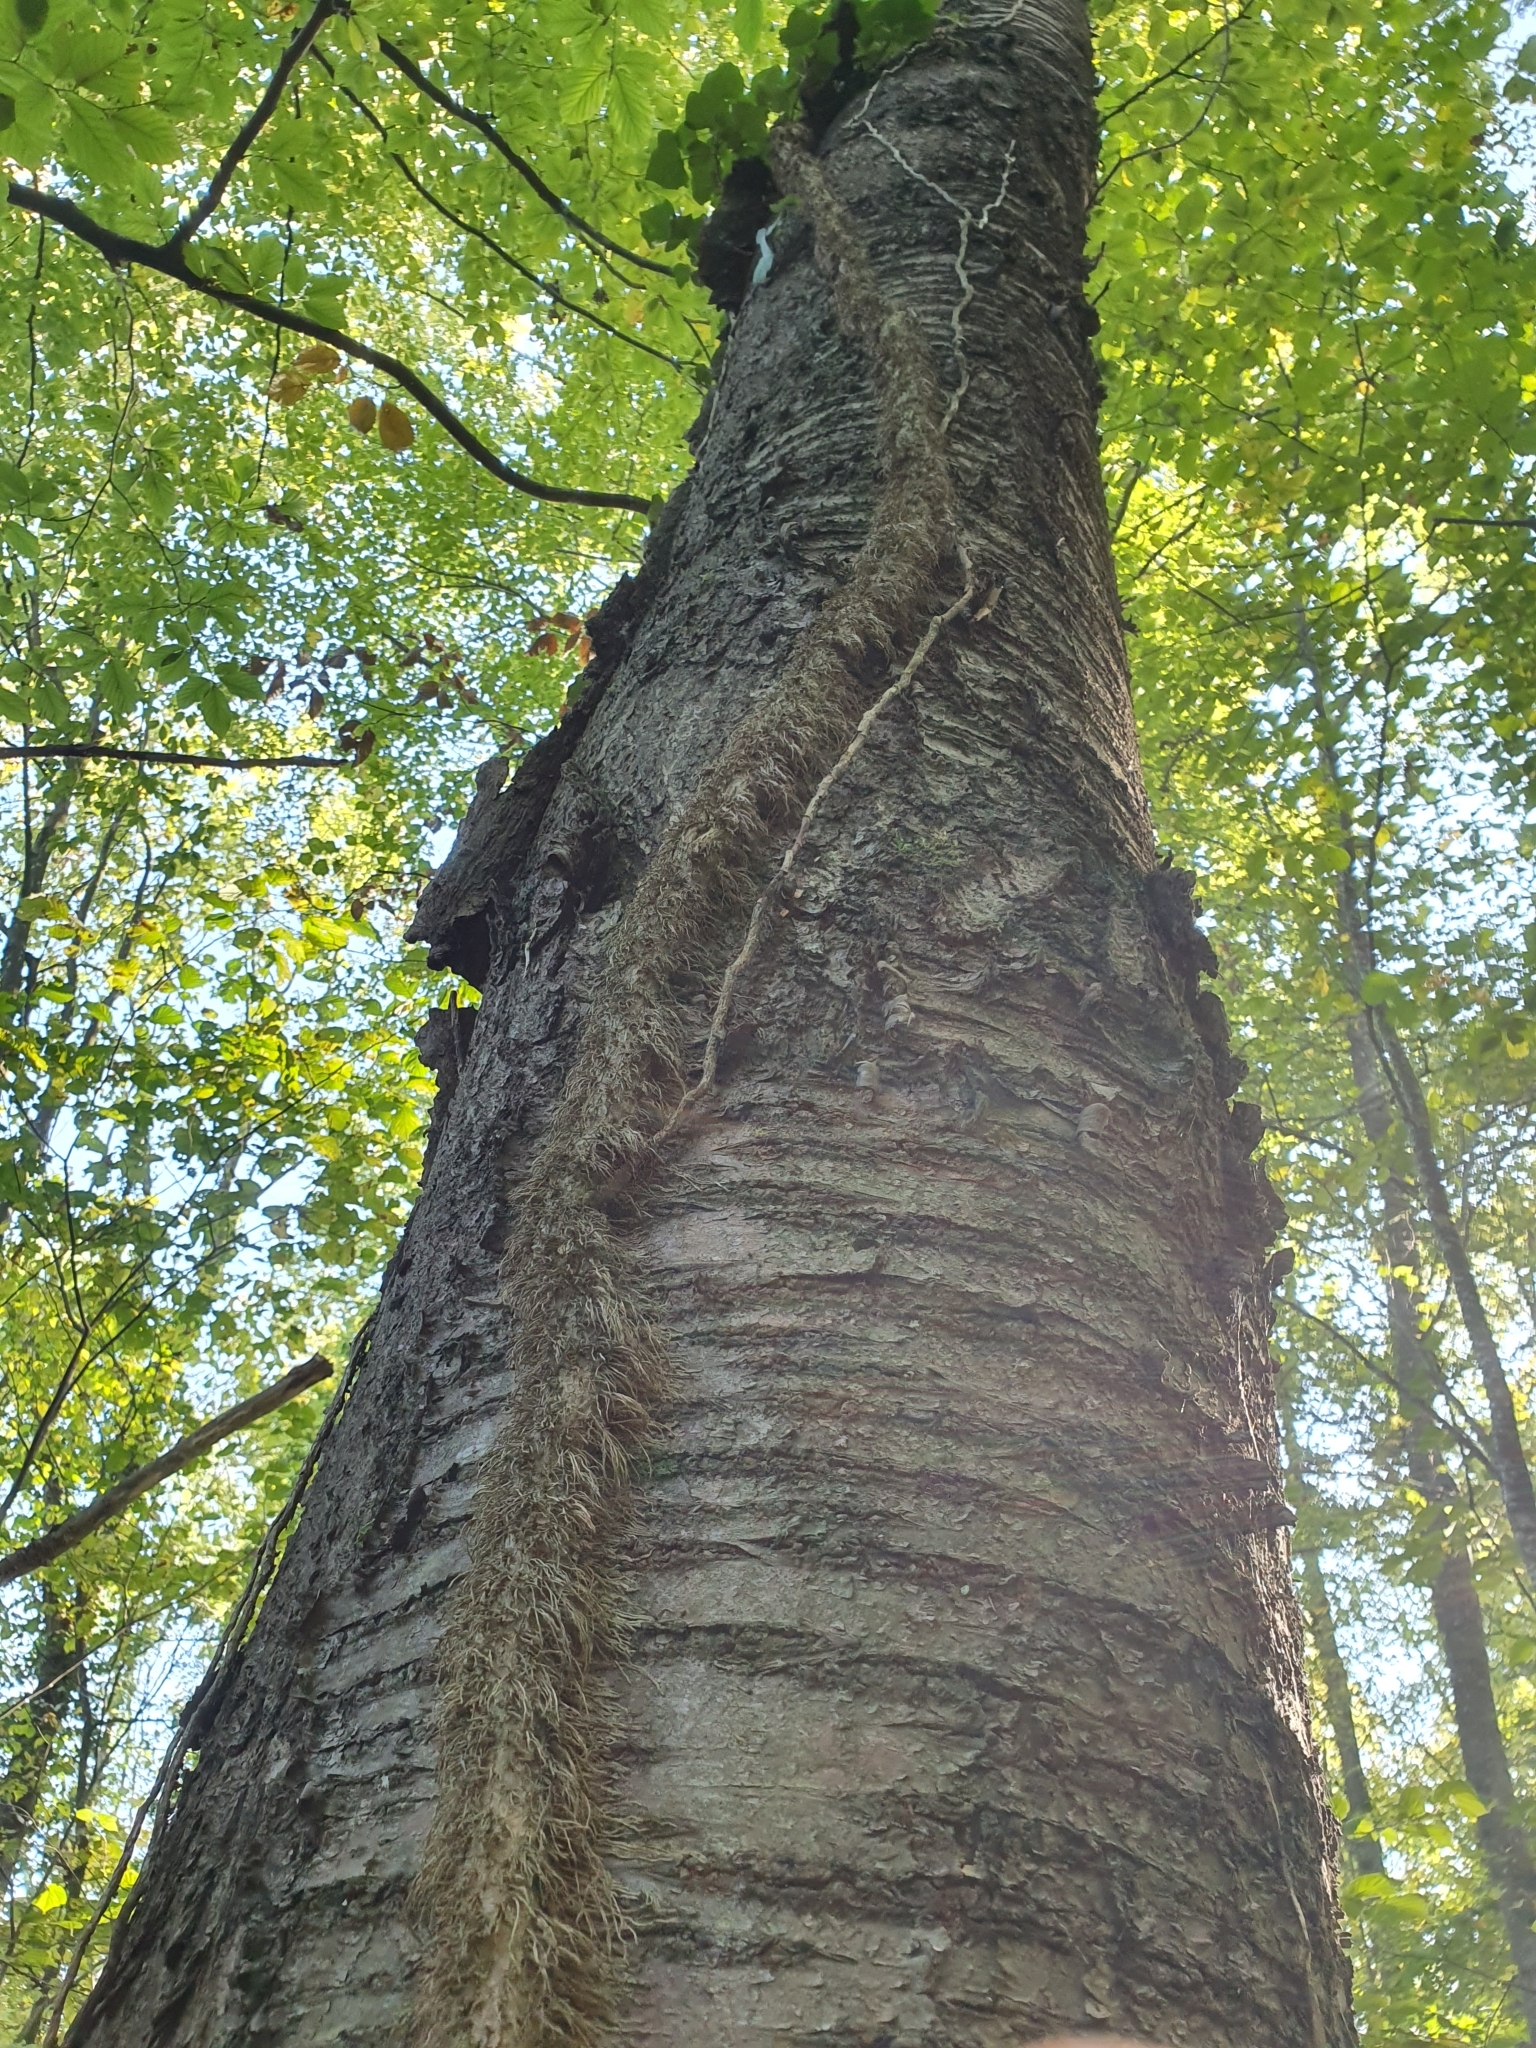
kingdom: Plantae
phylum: Tracheophyta
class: Magnoliopsida
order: Apiales
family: Araliaceae
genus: Hedera
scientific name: Hedera helix
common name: Ivy
